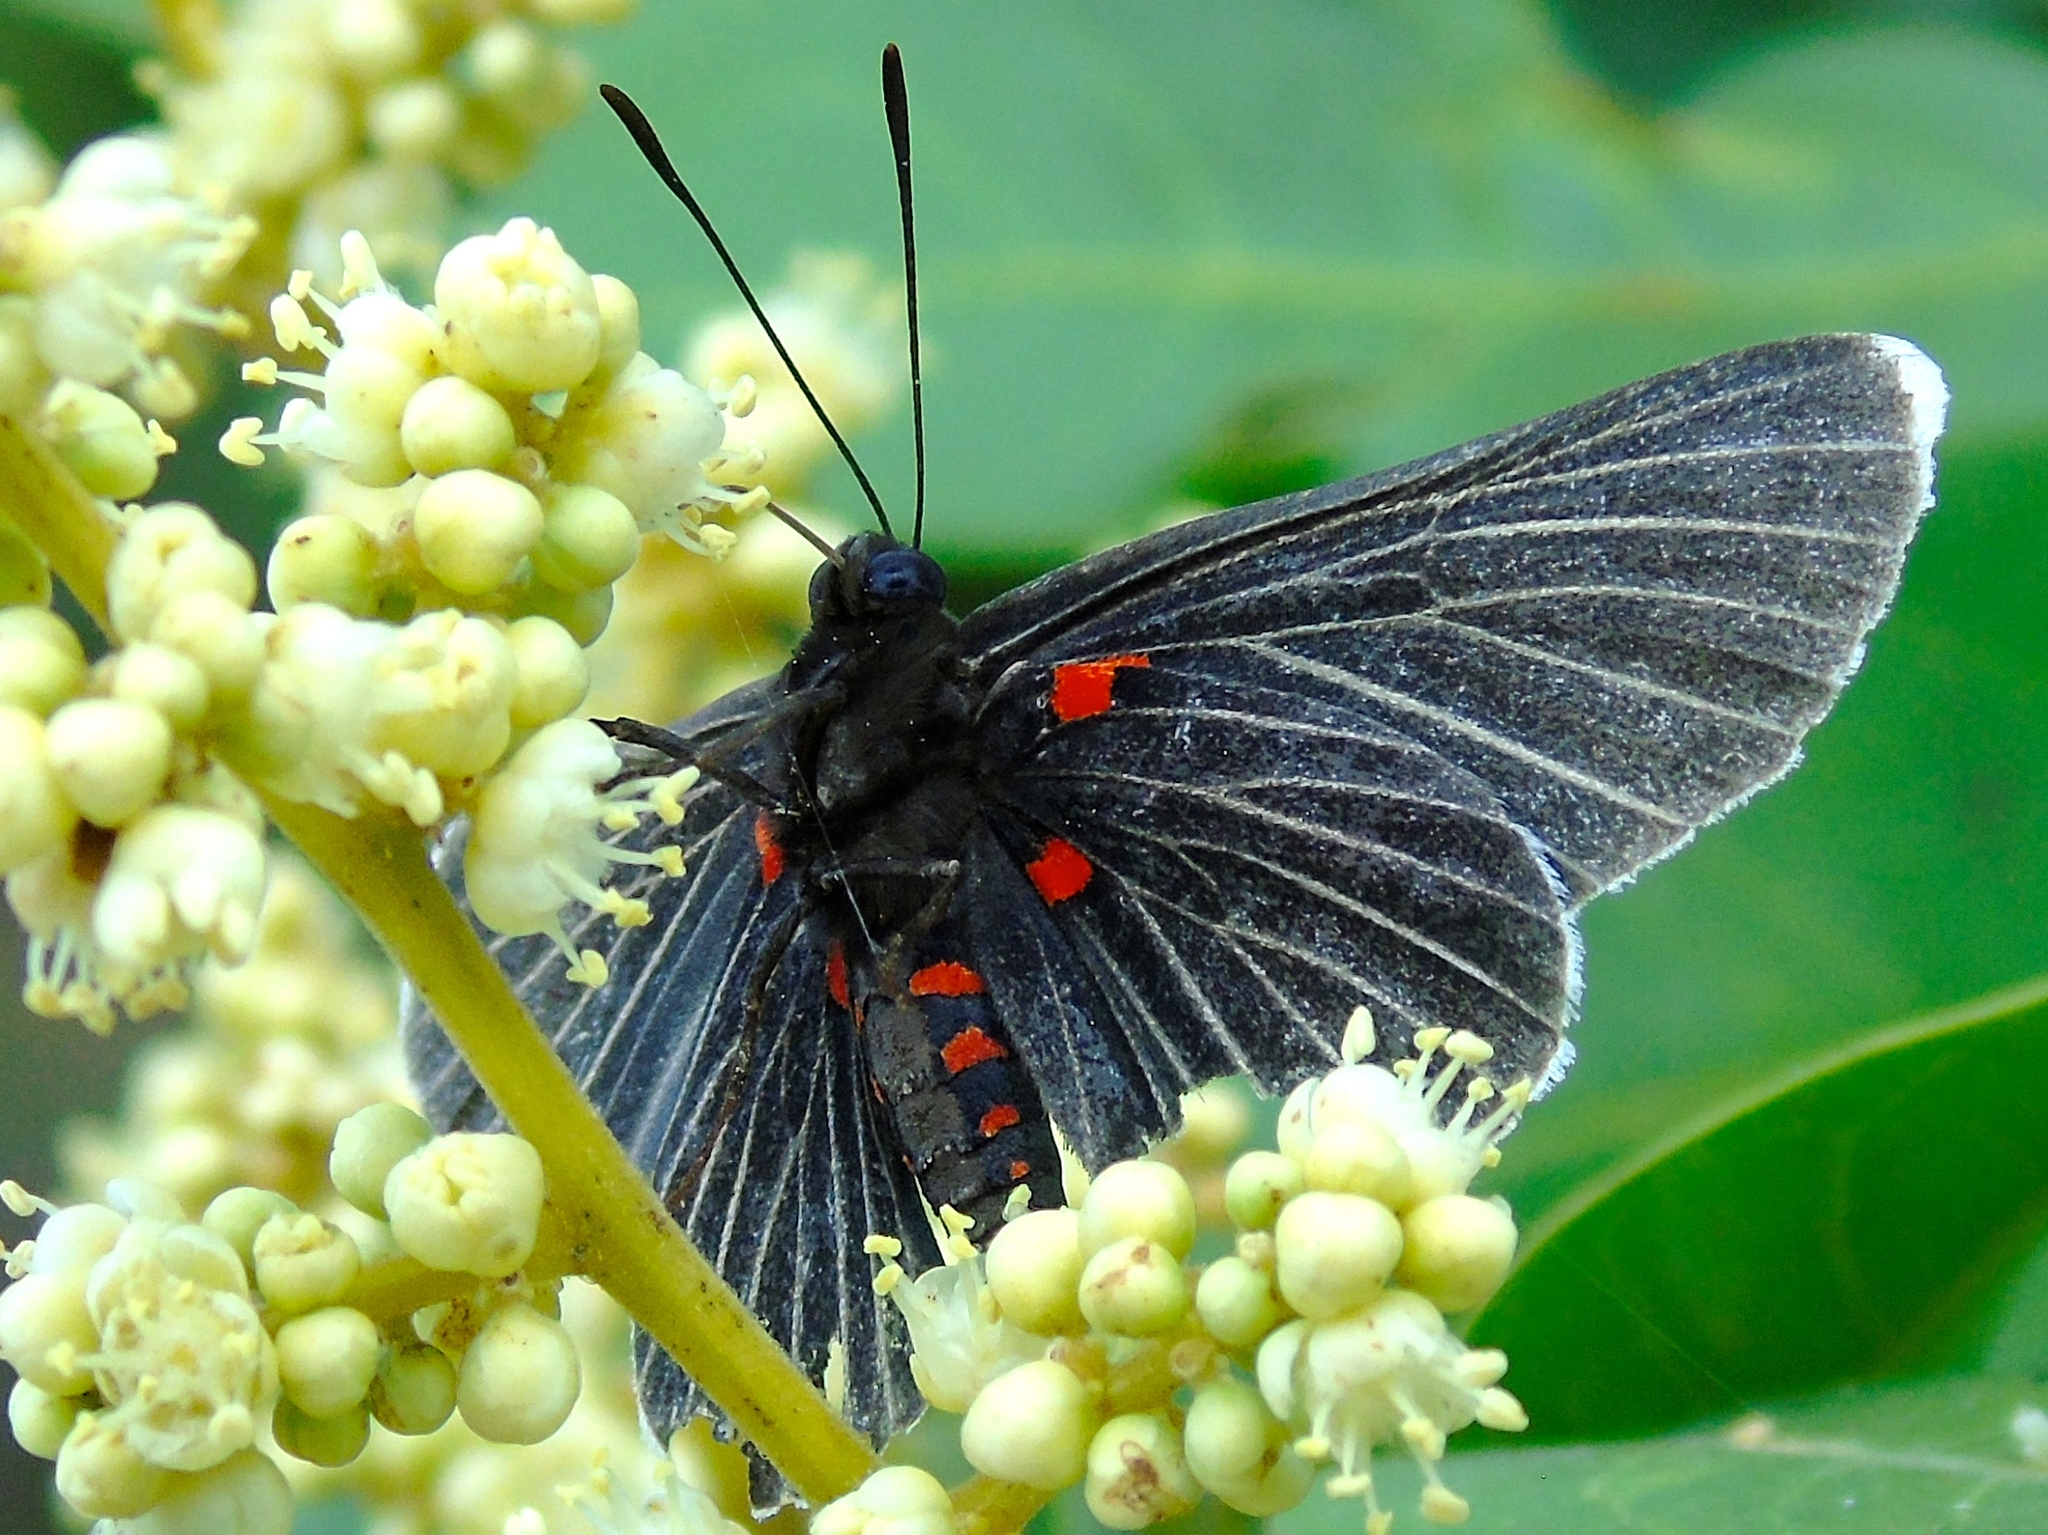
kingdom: Animalia
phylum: Arthropoda
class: Insecta
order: Lepidoptera
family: Lycaenidae
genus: Melanis
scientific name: Melanis
